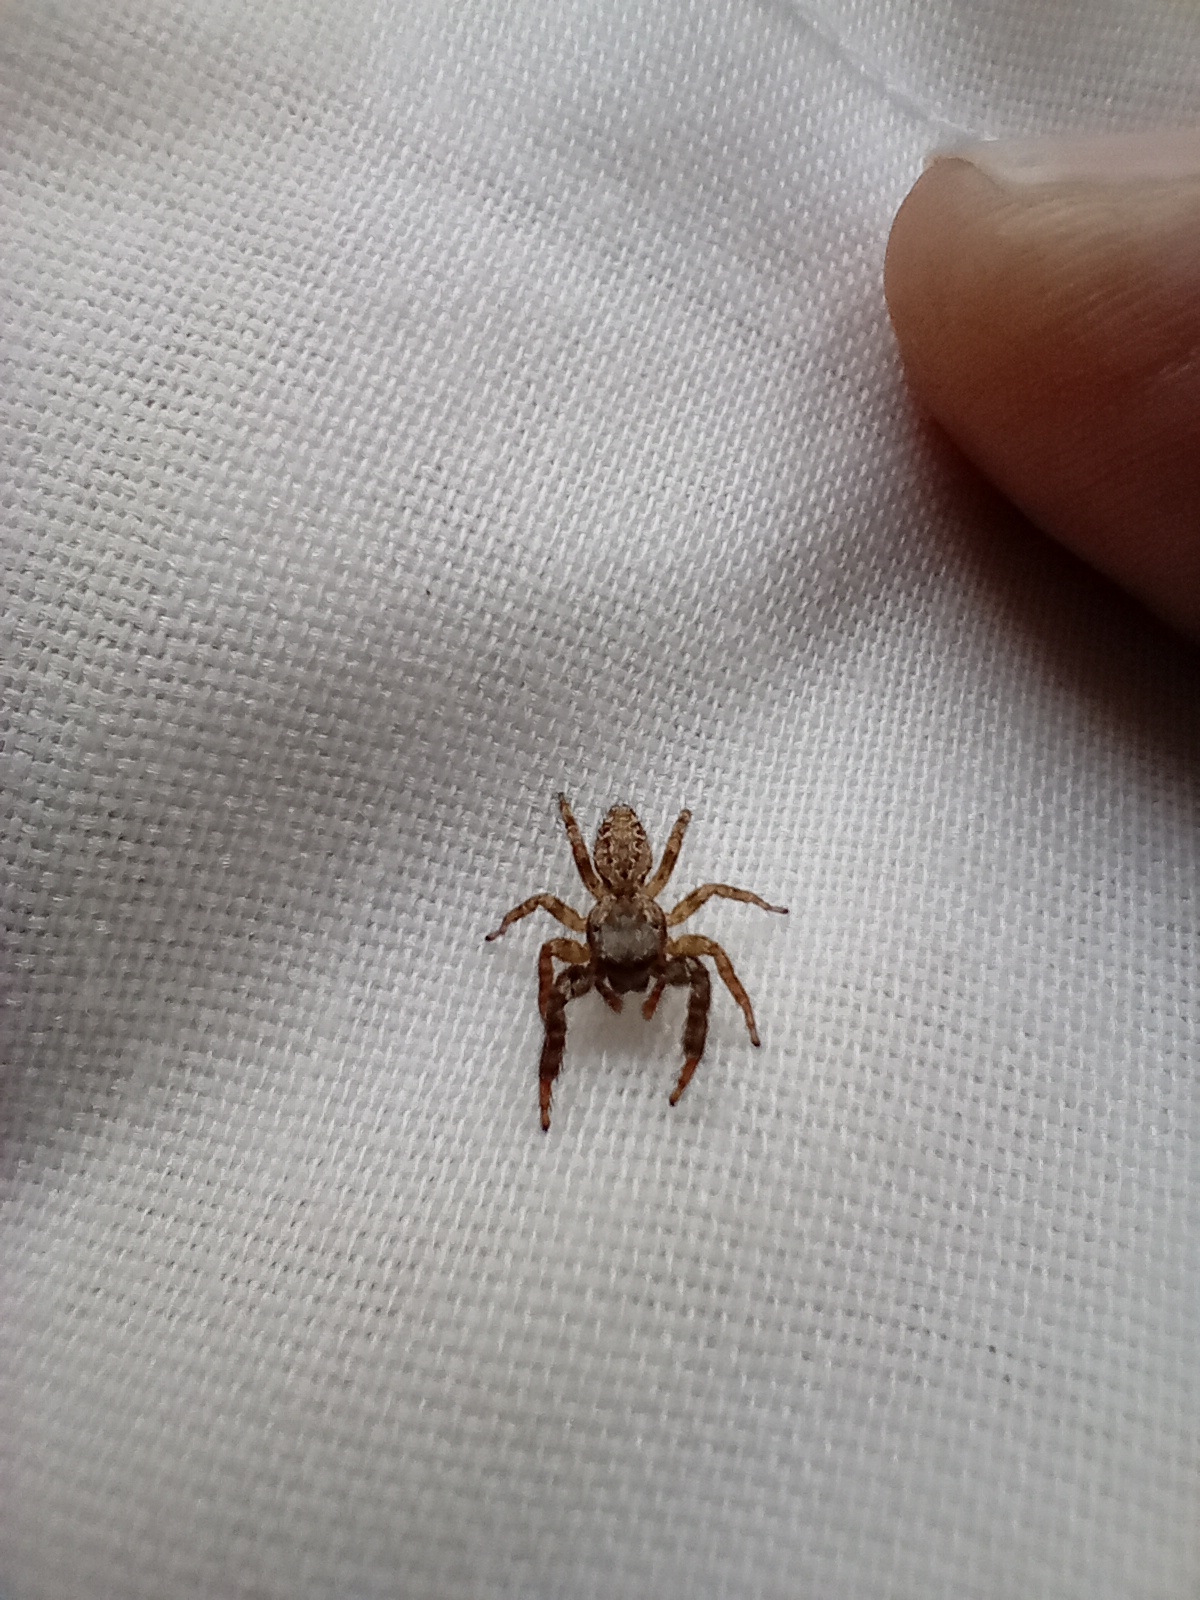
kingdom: Animalia
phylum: Arthropoda
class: Arachnida
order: Araneae
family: Salticidae
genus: Marpissa
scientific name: Marpissa muscosa
